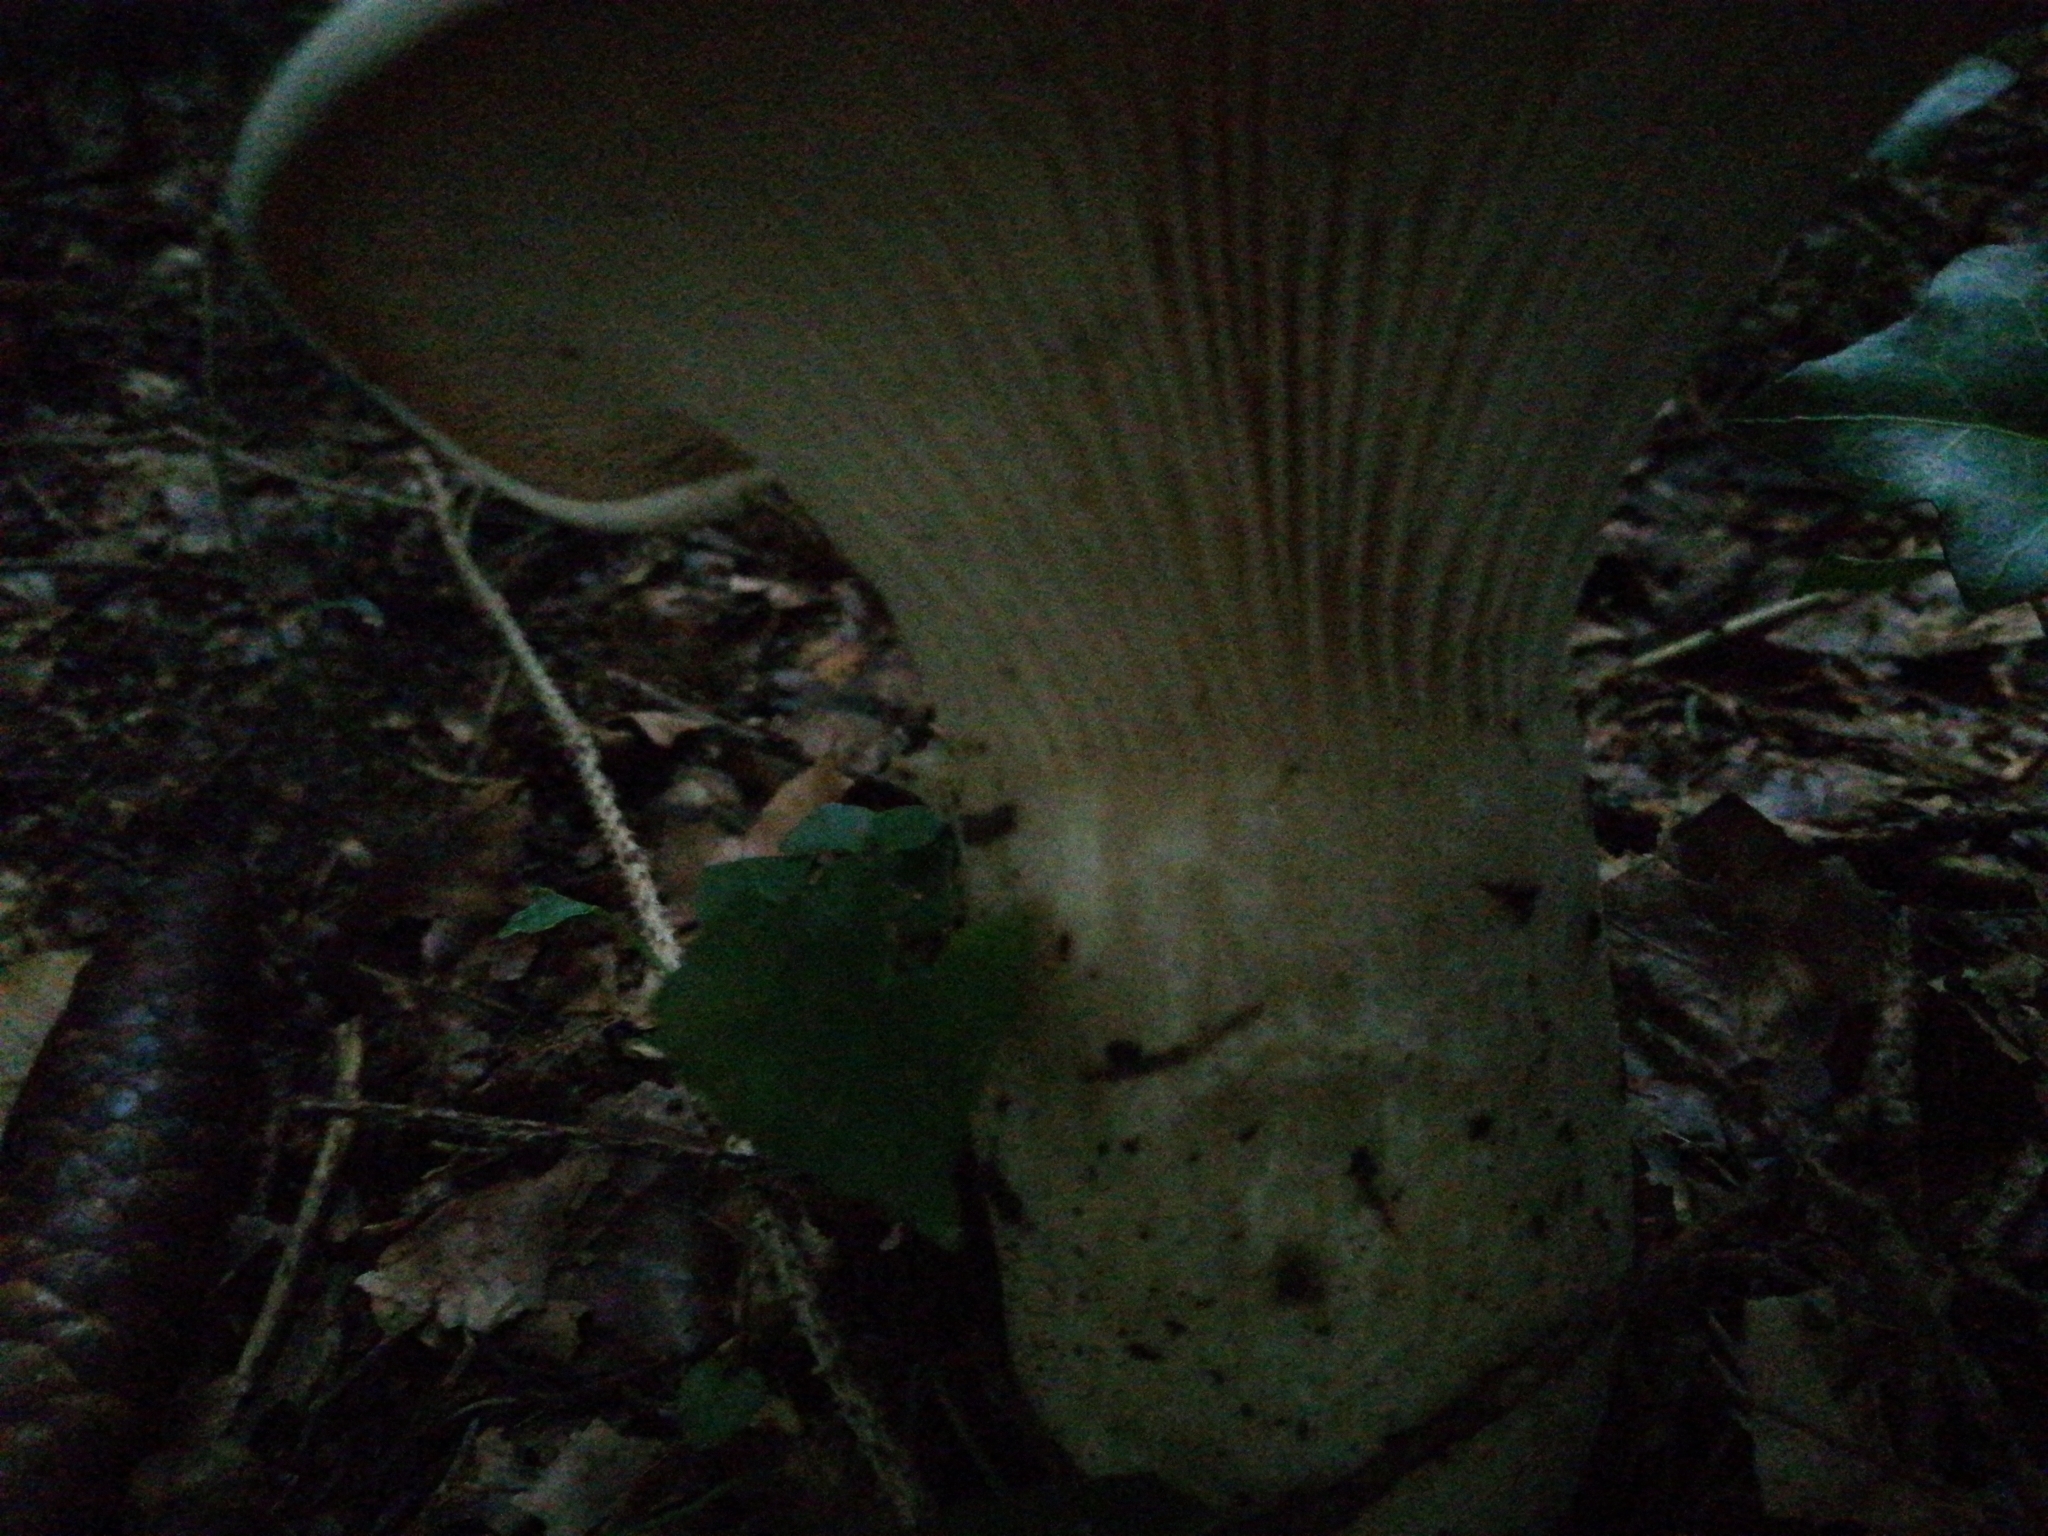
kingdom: Fungi
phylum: Basidiomycota
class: Agaricomycetes
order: Agaricales
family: Tricholomataceae
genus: Infundibulicybe
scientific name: Infundibulicybe geotropa
